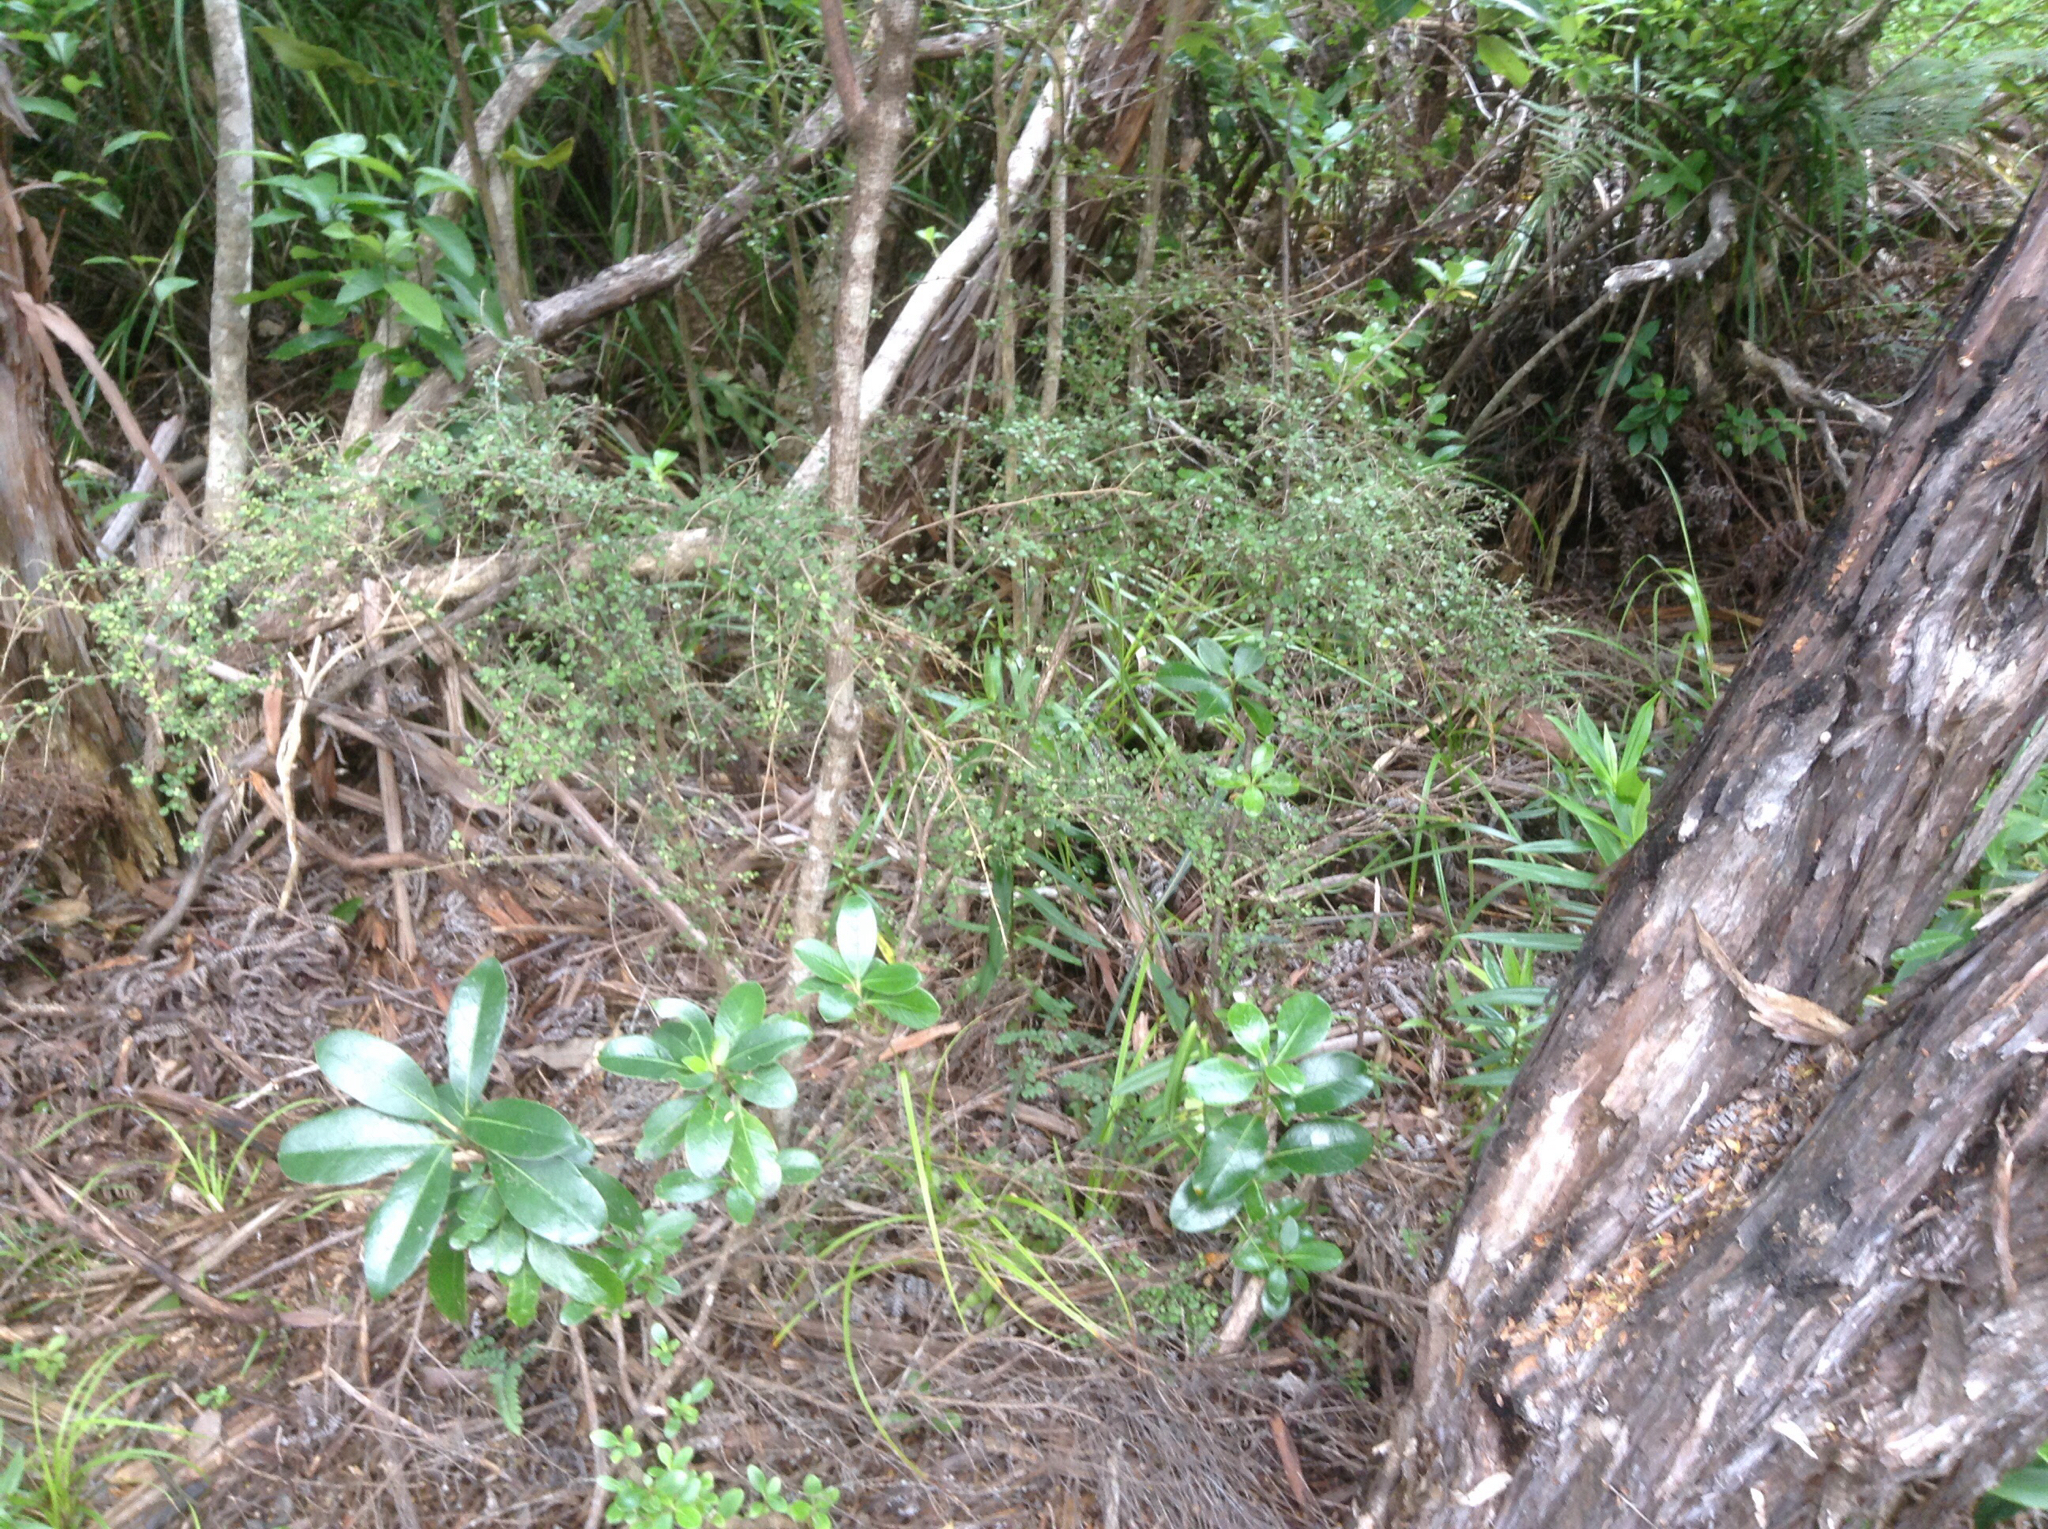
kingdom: Plantae
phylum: Tracheophyta
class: Magnoliopsida
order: Gentianales
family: Rubiaceae
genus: Coprosma
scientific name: Coprosma rhamnoides
